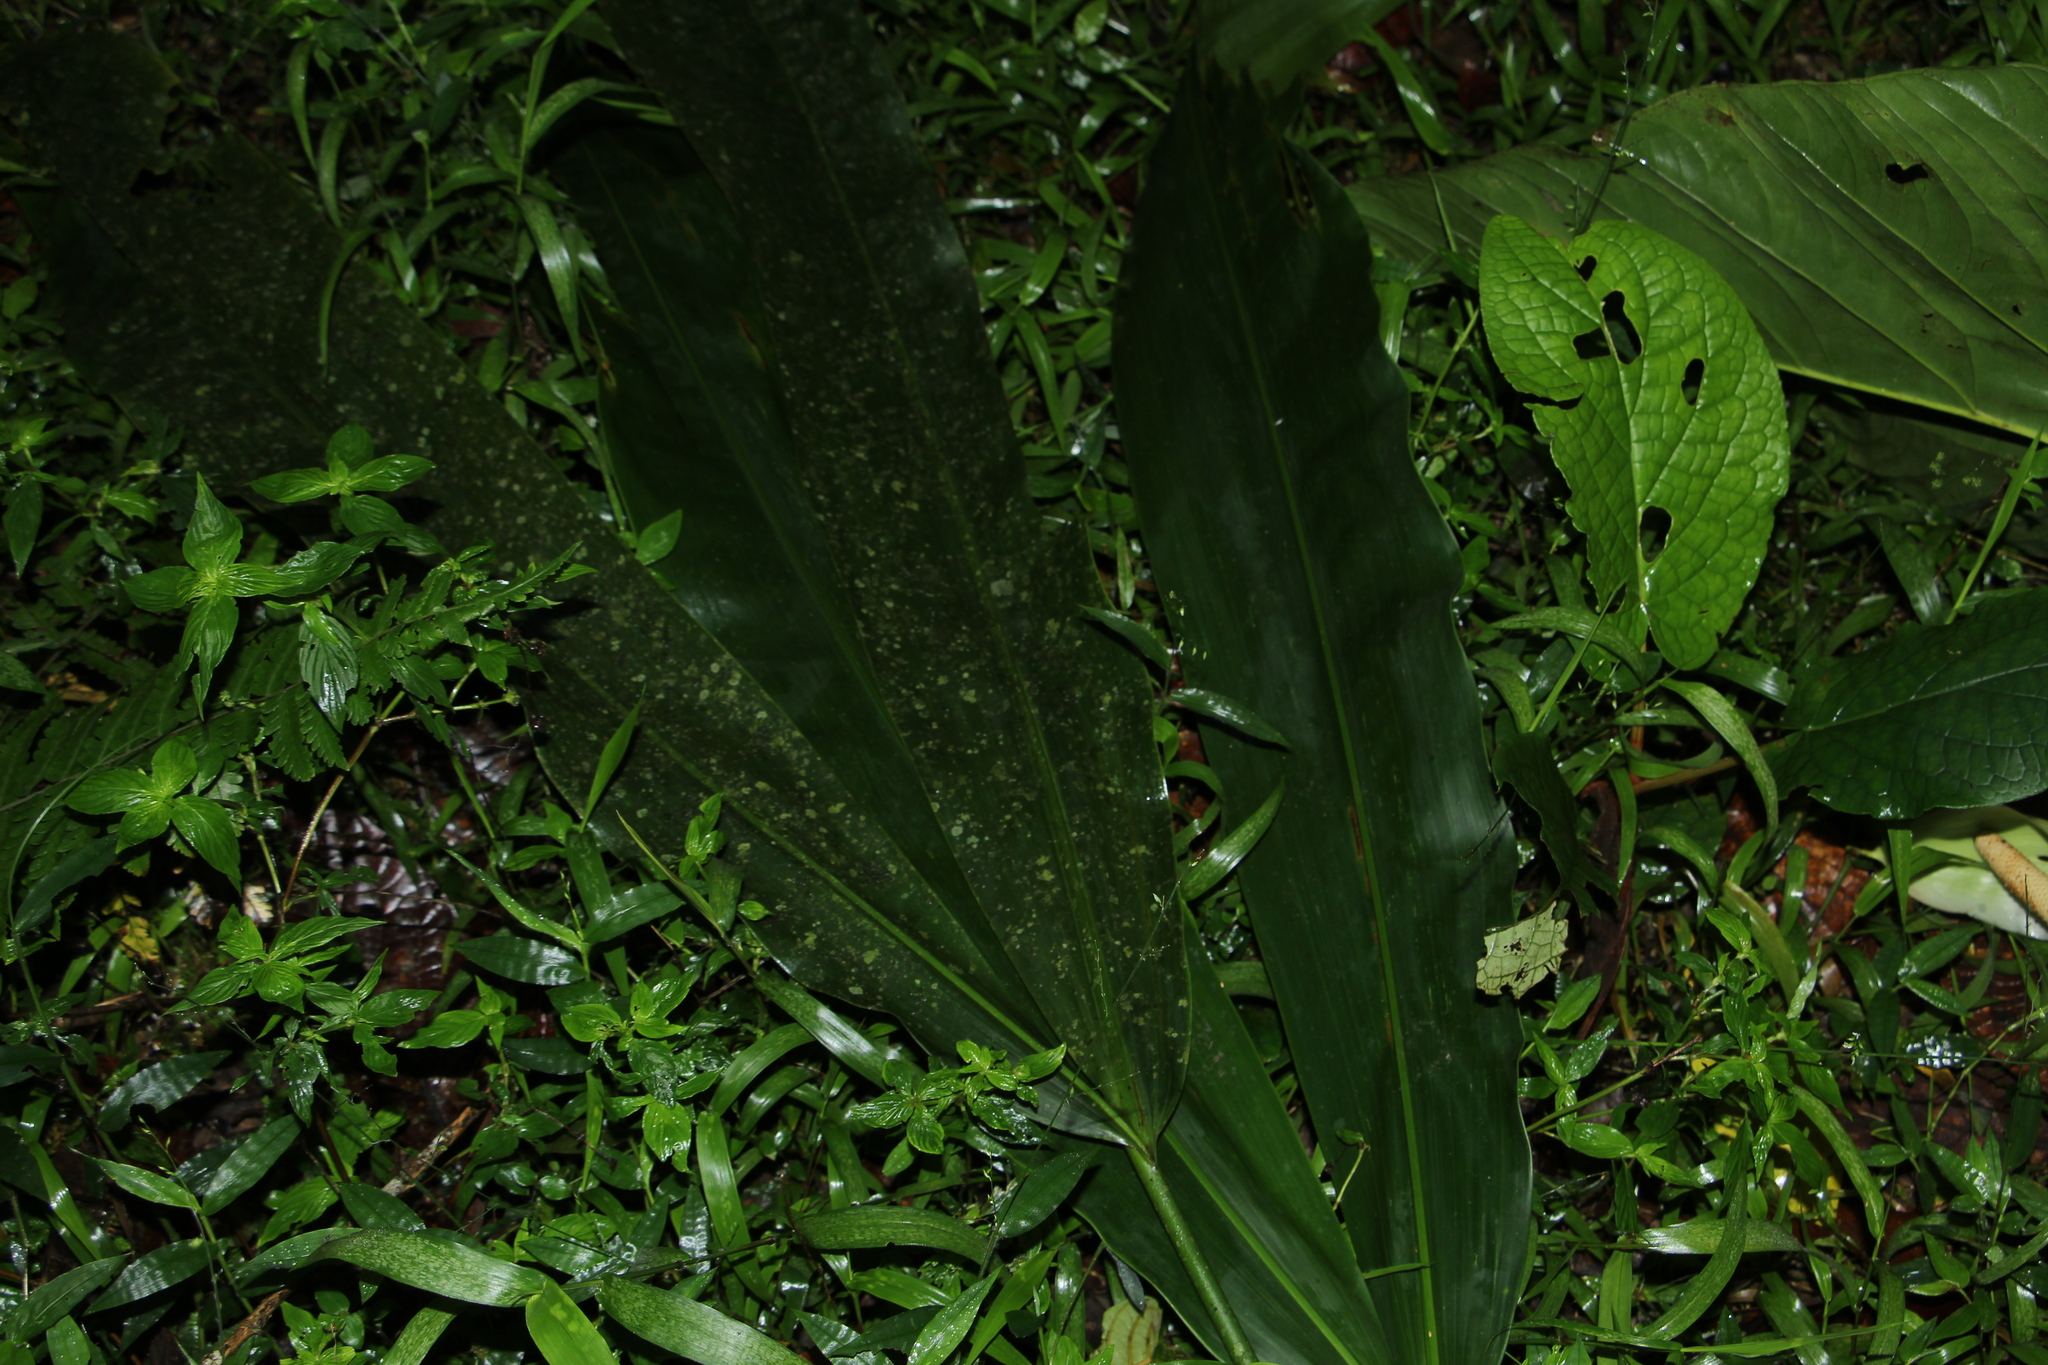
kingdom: Plantae
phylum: Tracheophyta
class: Liliopsida
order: Pandanales
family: Cyclanthaceae
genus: Cyclanthus
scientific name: Cyclanthus bipartitus
